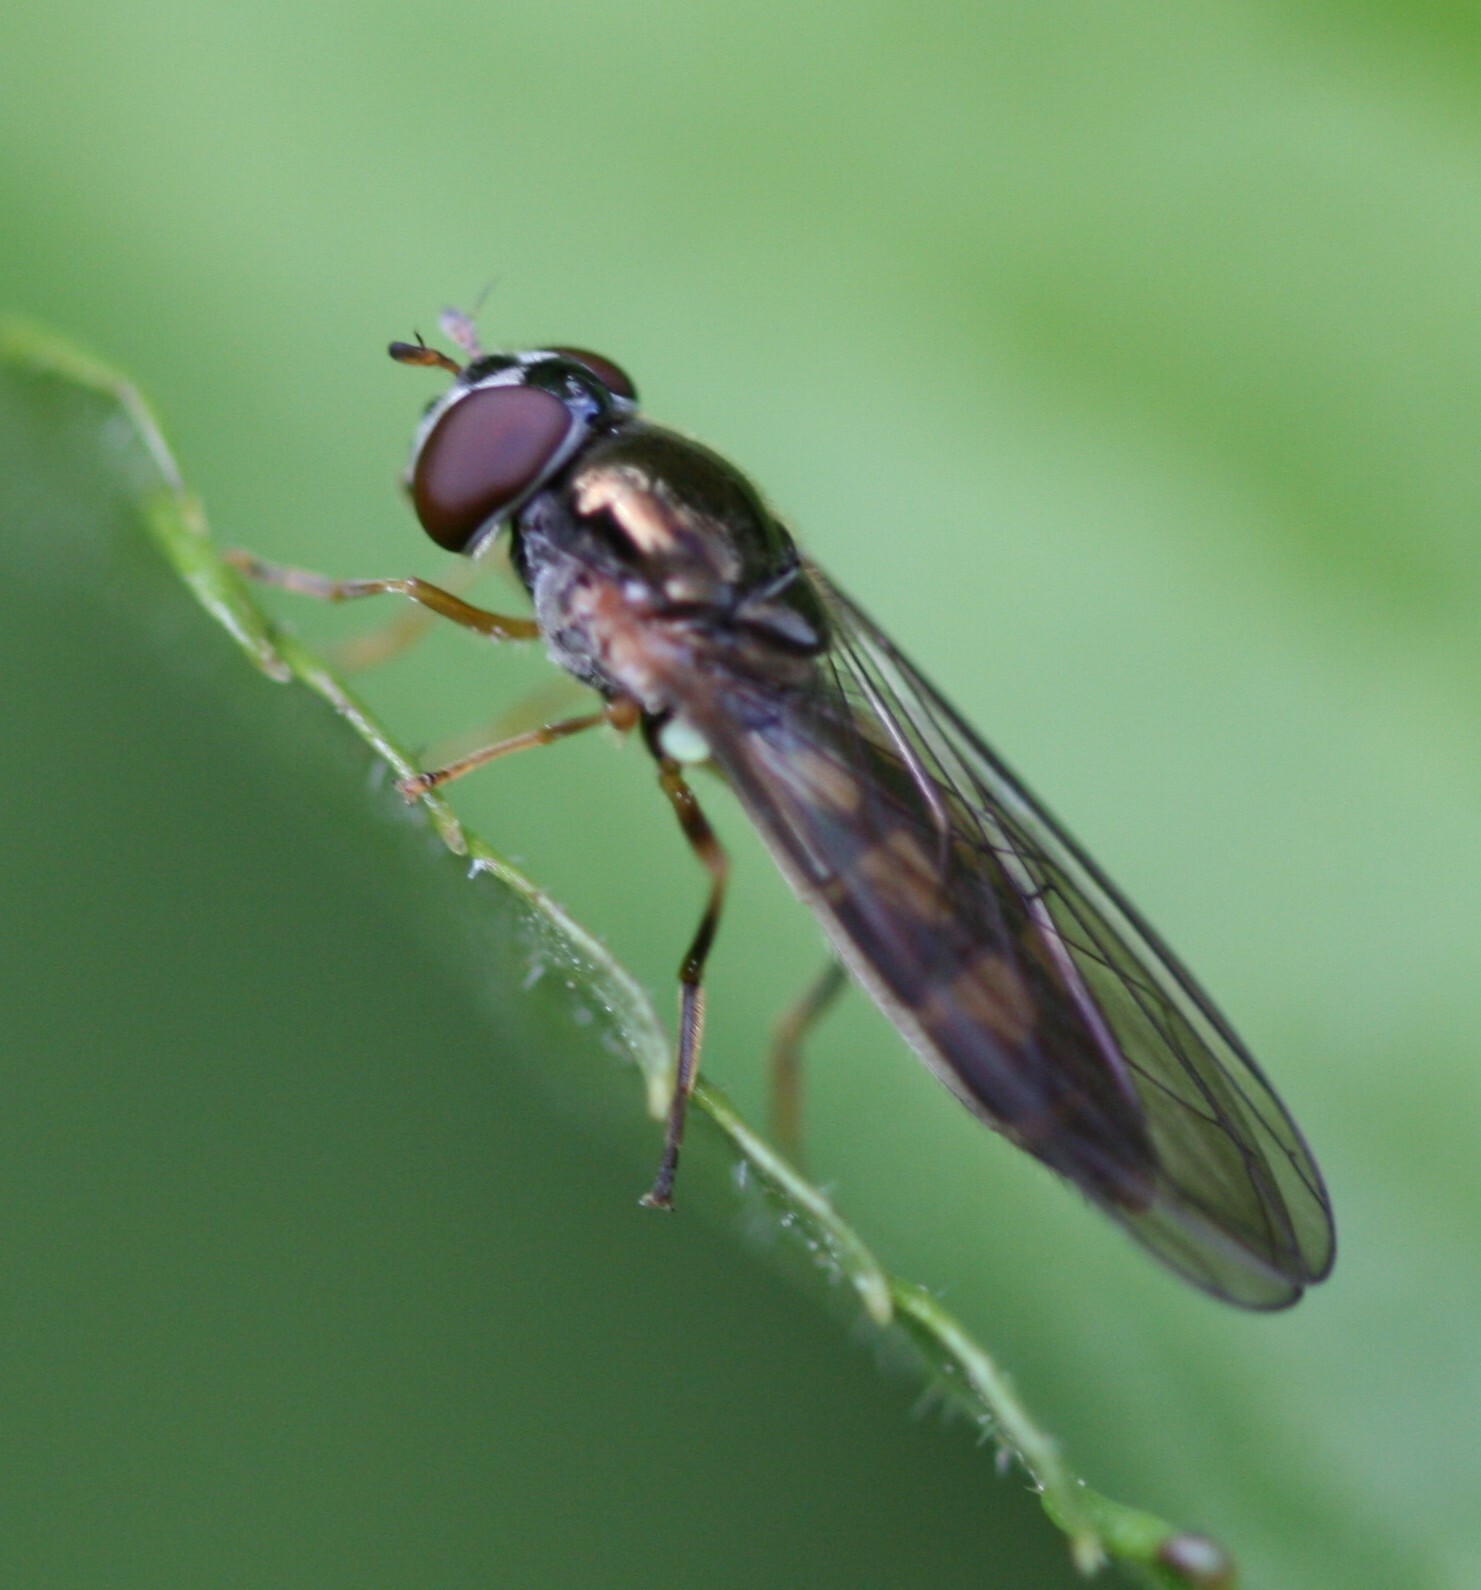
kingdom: Animalia
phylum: Arthropoda
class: Insecta
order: Diptera
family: Syrphidae
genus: Melanostoma
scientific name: Melanostoma scalare
